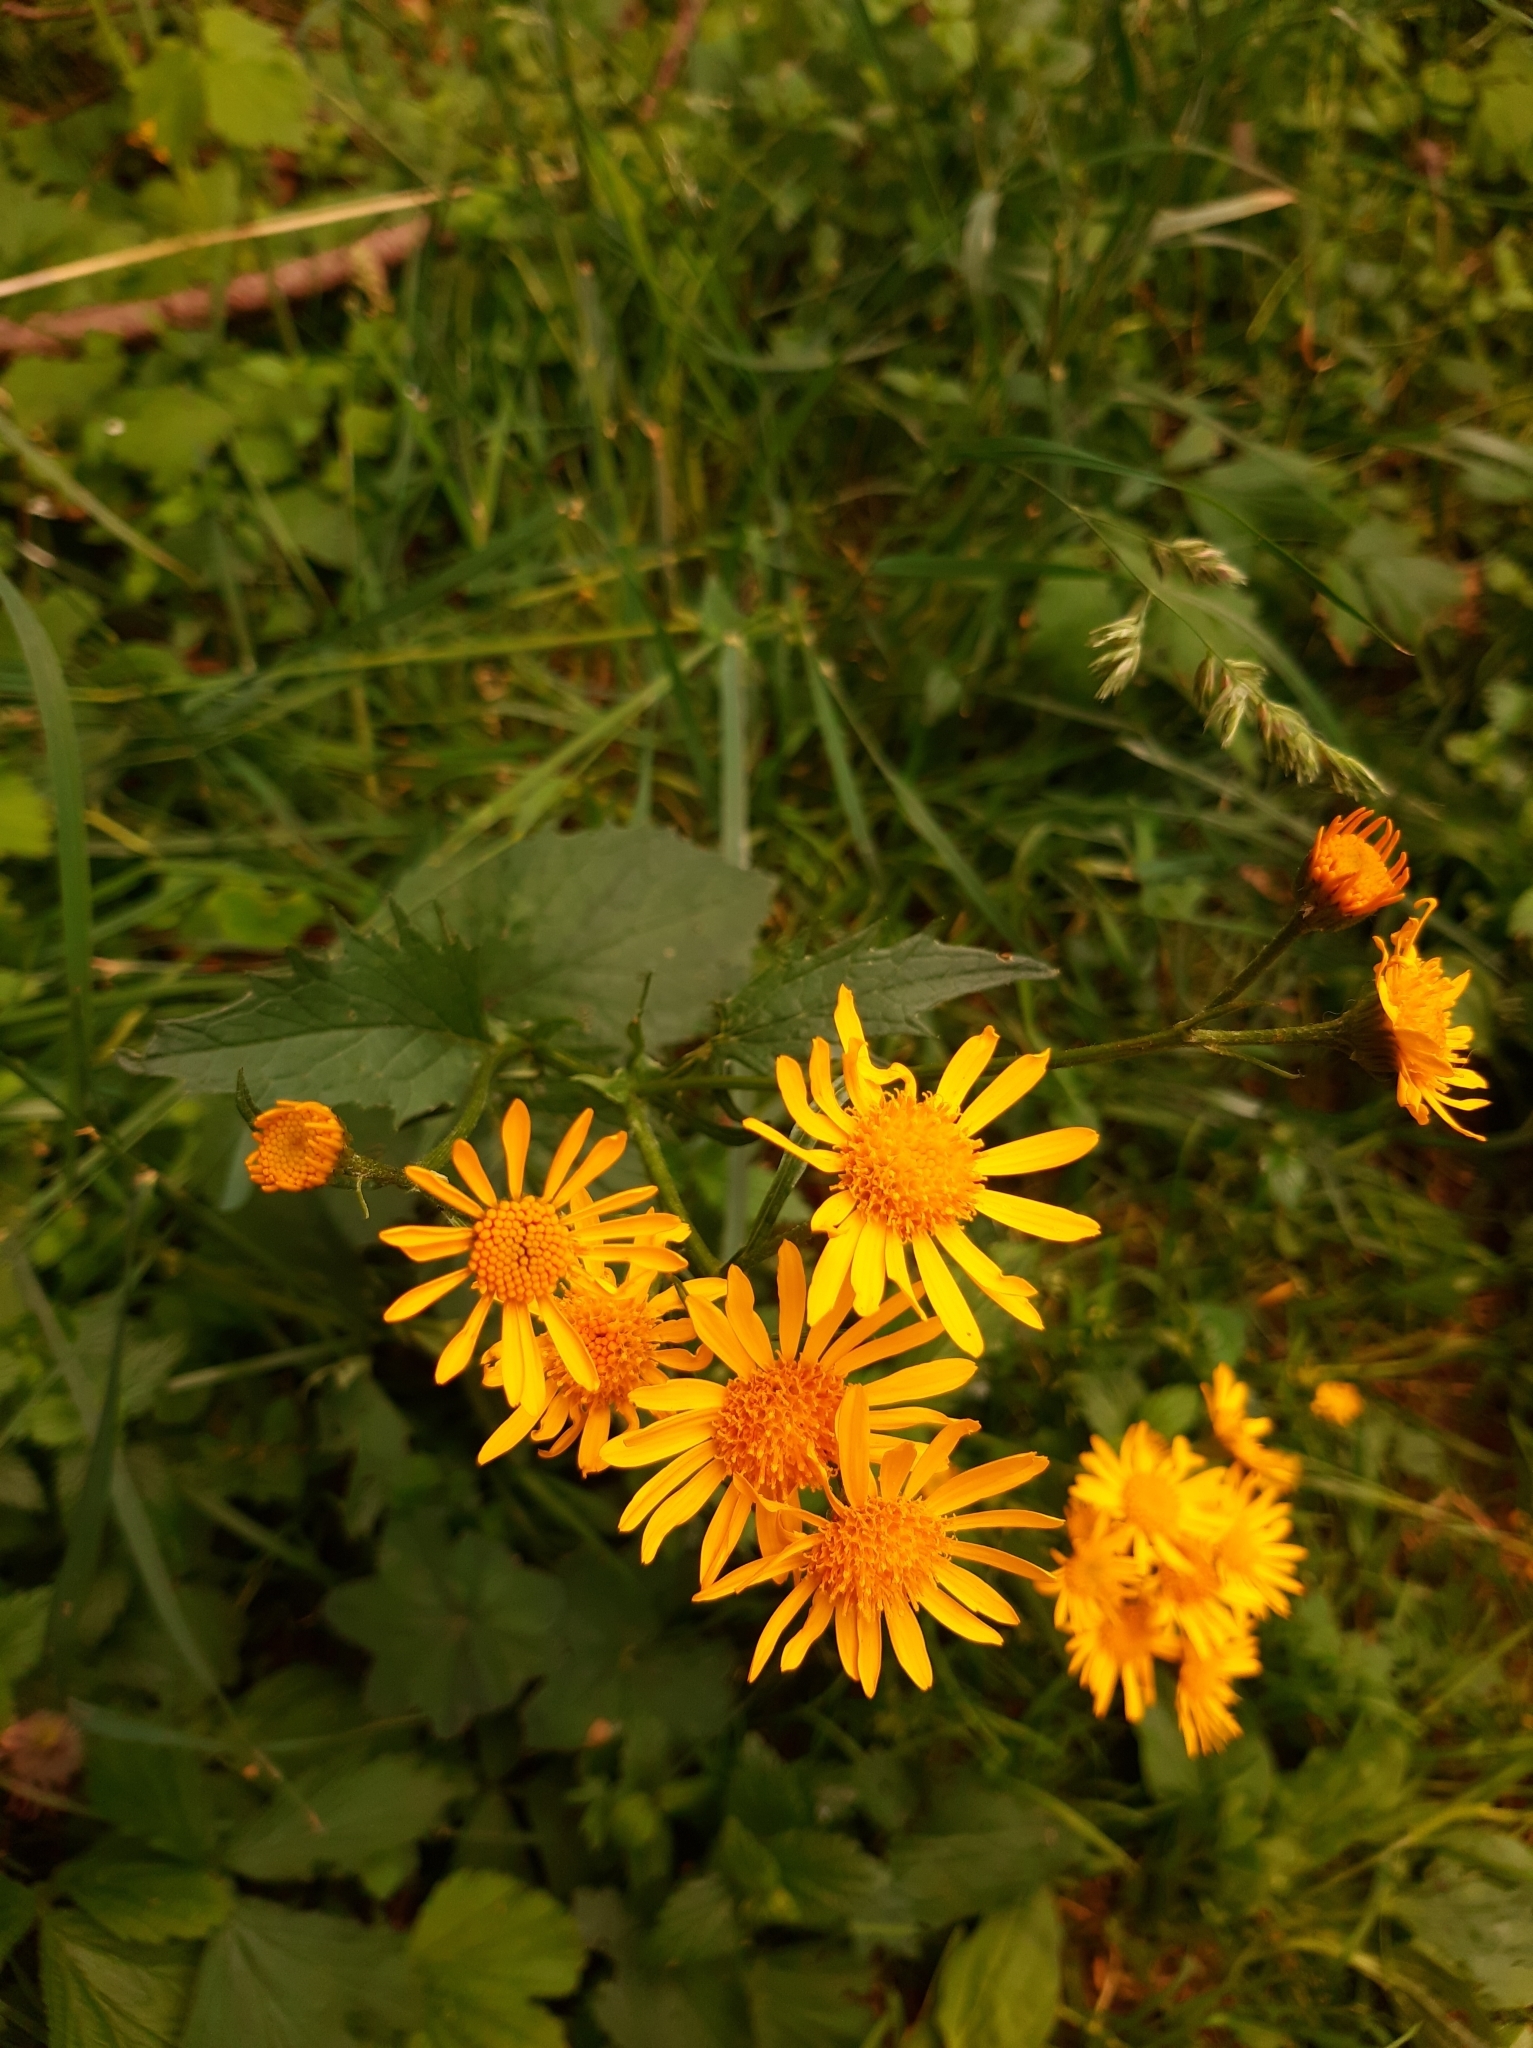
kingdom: Plantae
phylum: Tracheophyta
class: Magnoliopsida
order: Asterales
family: Asteraceae
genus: Jacobaea
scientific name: Jacobaea subalpina
